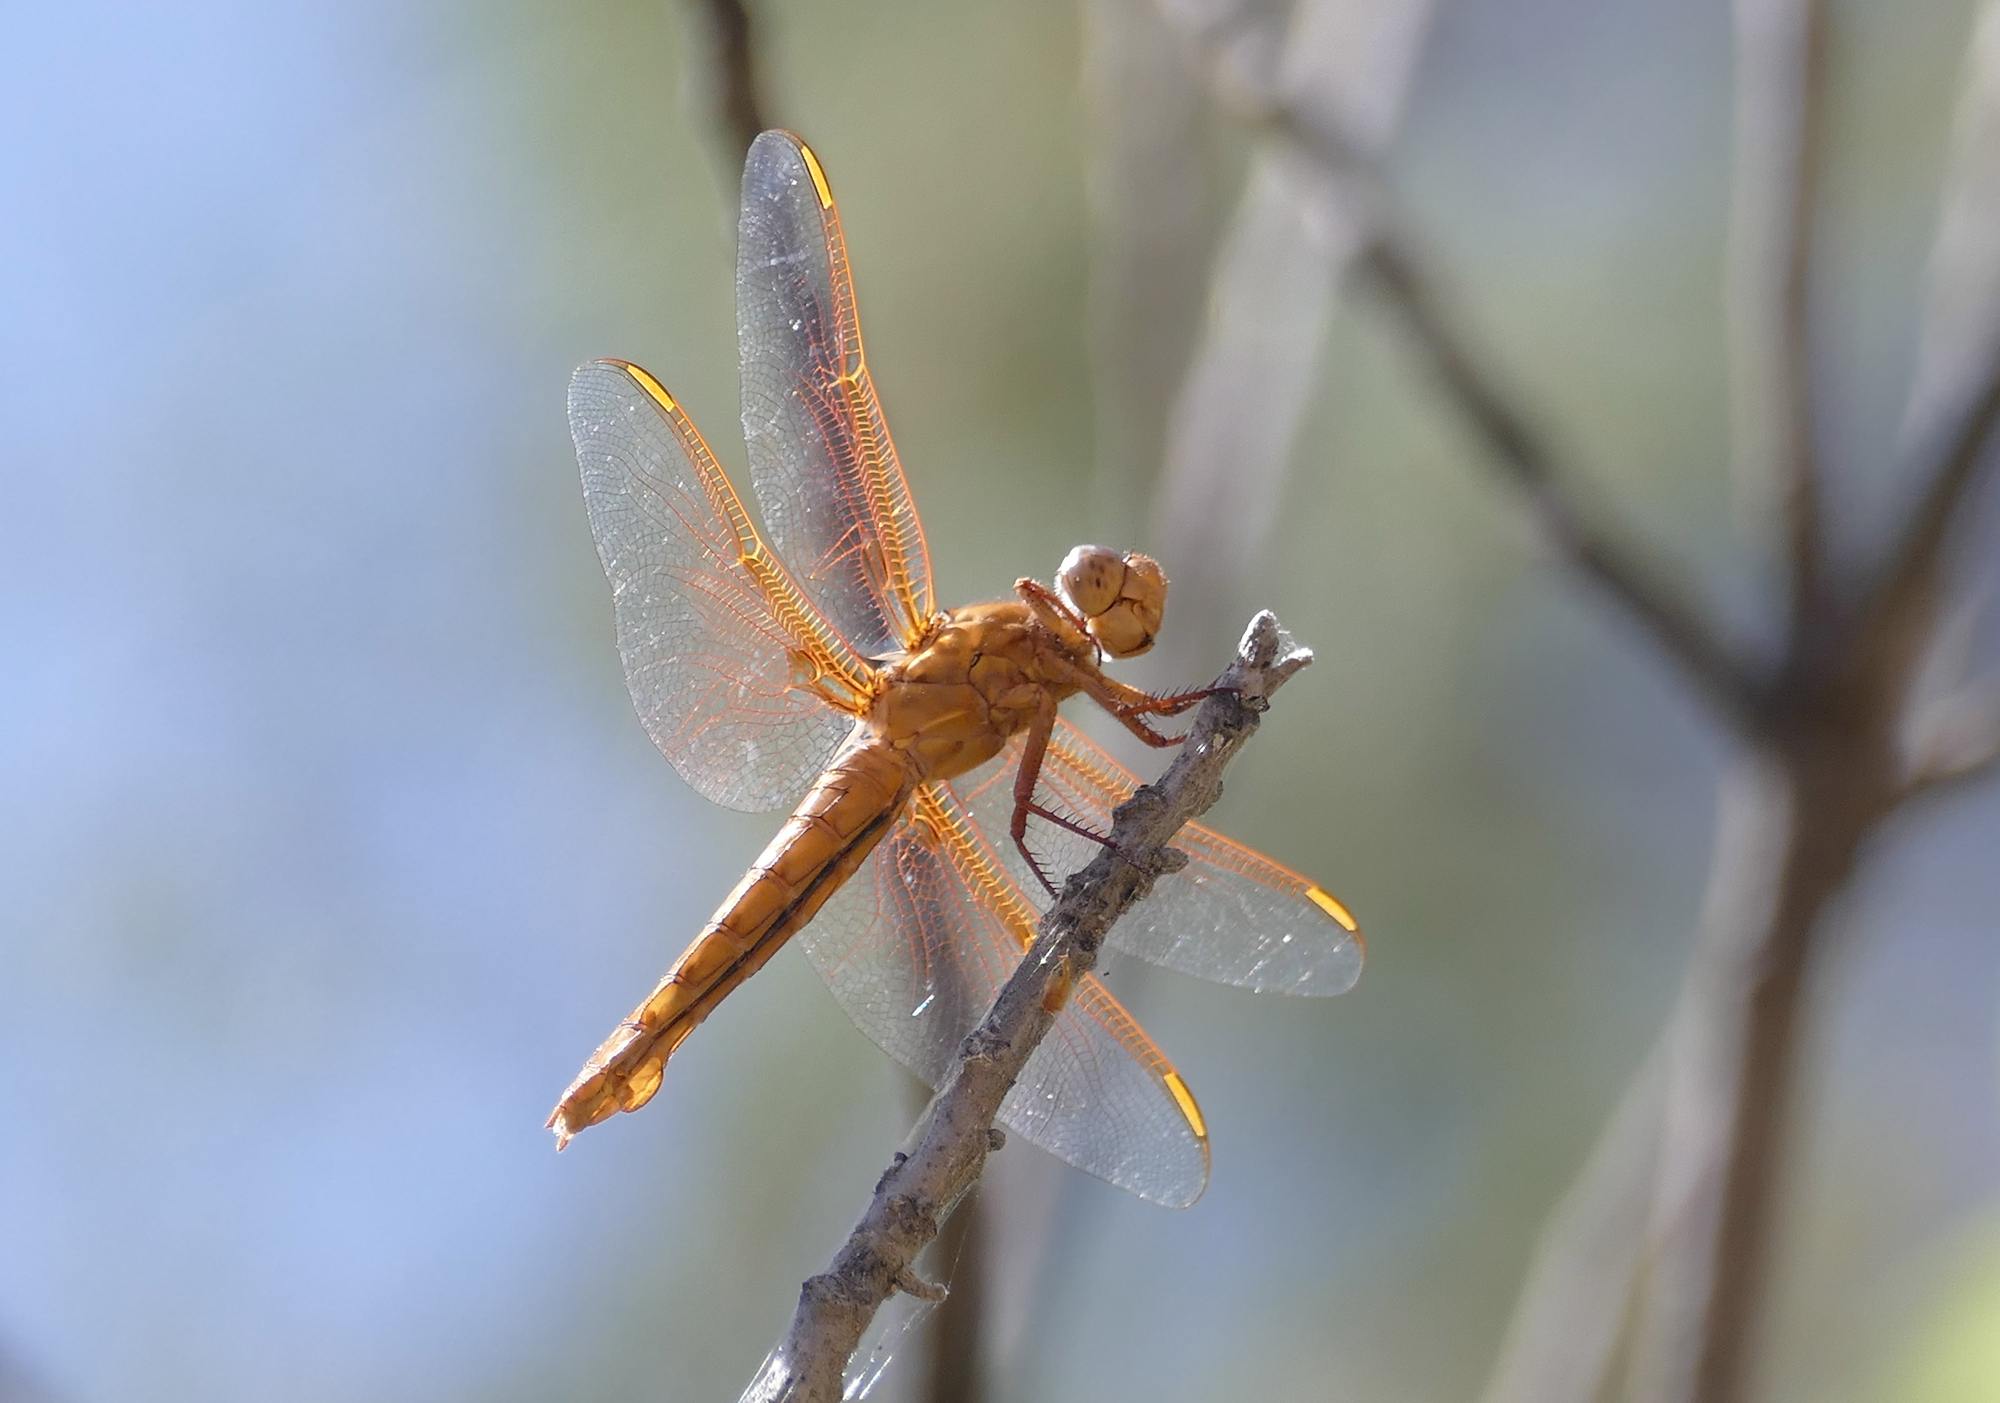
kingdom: Animalia
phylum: Arthropoda
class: Insecta
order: Odonata
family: Libellulidae
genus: Libellula
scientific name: Libellula saturata
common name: Flame skimmer
